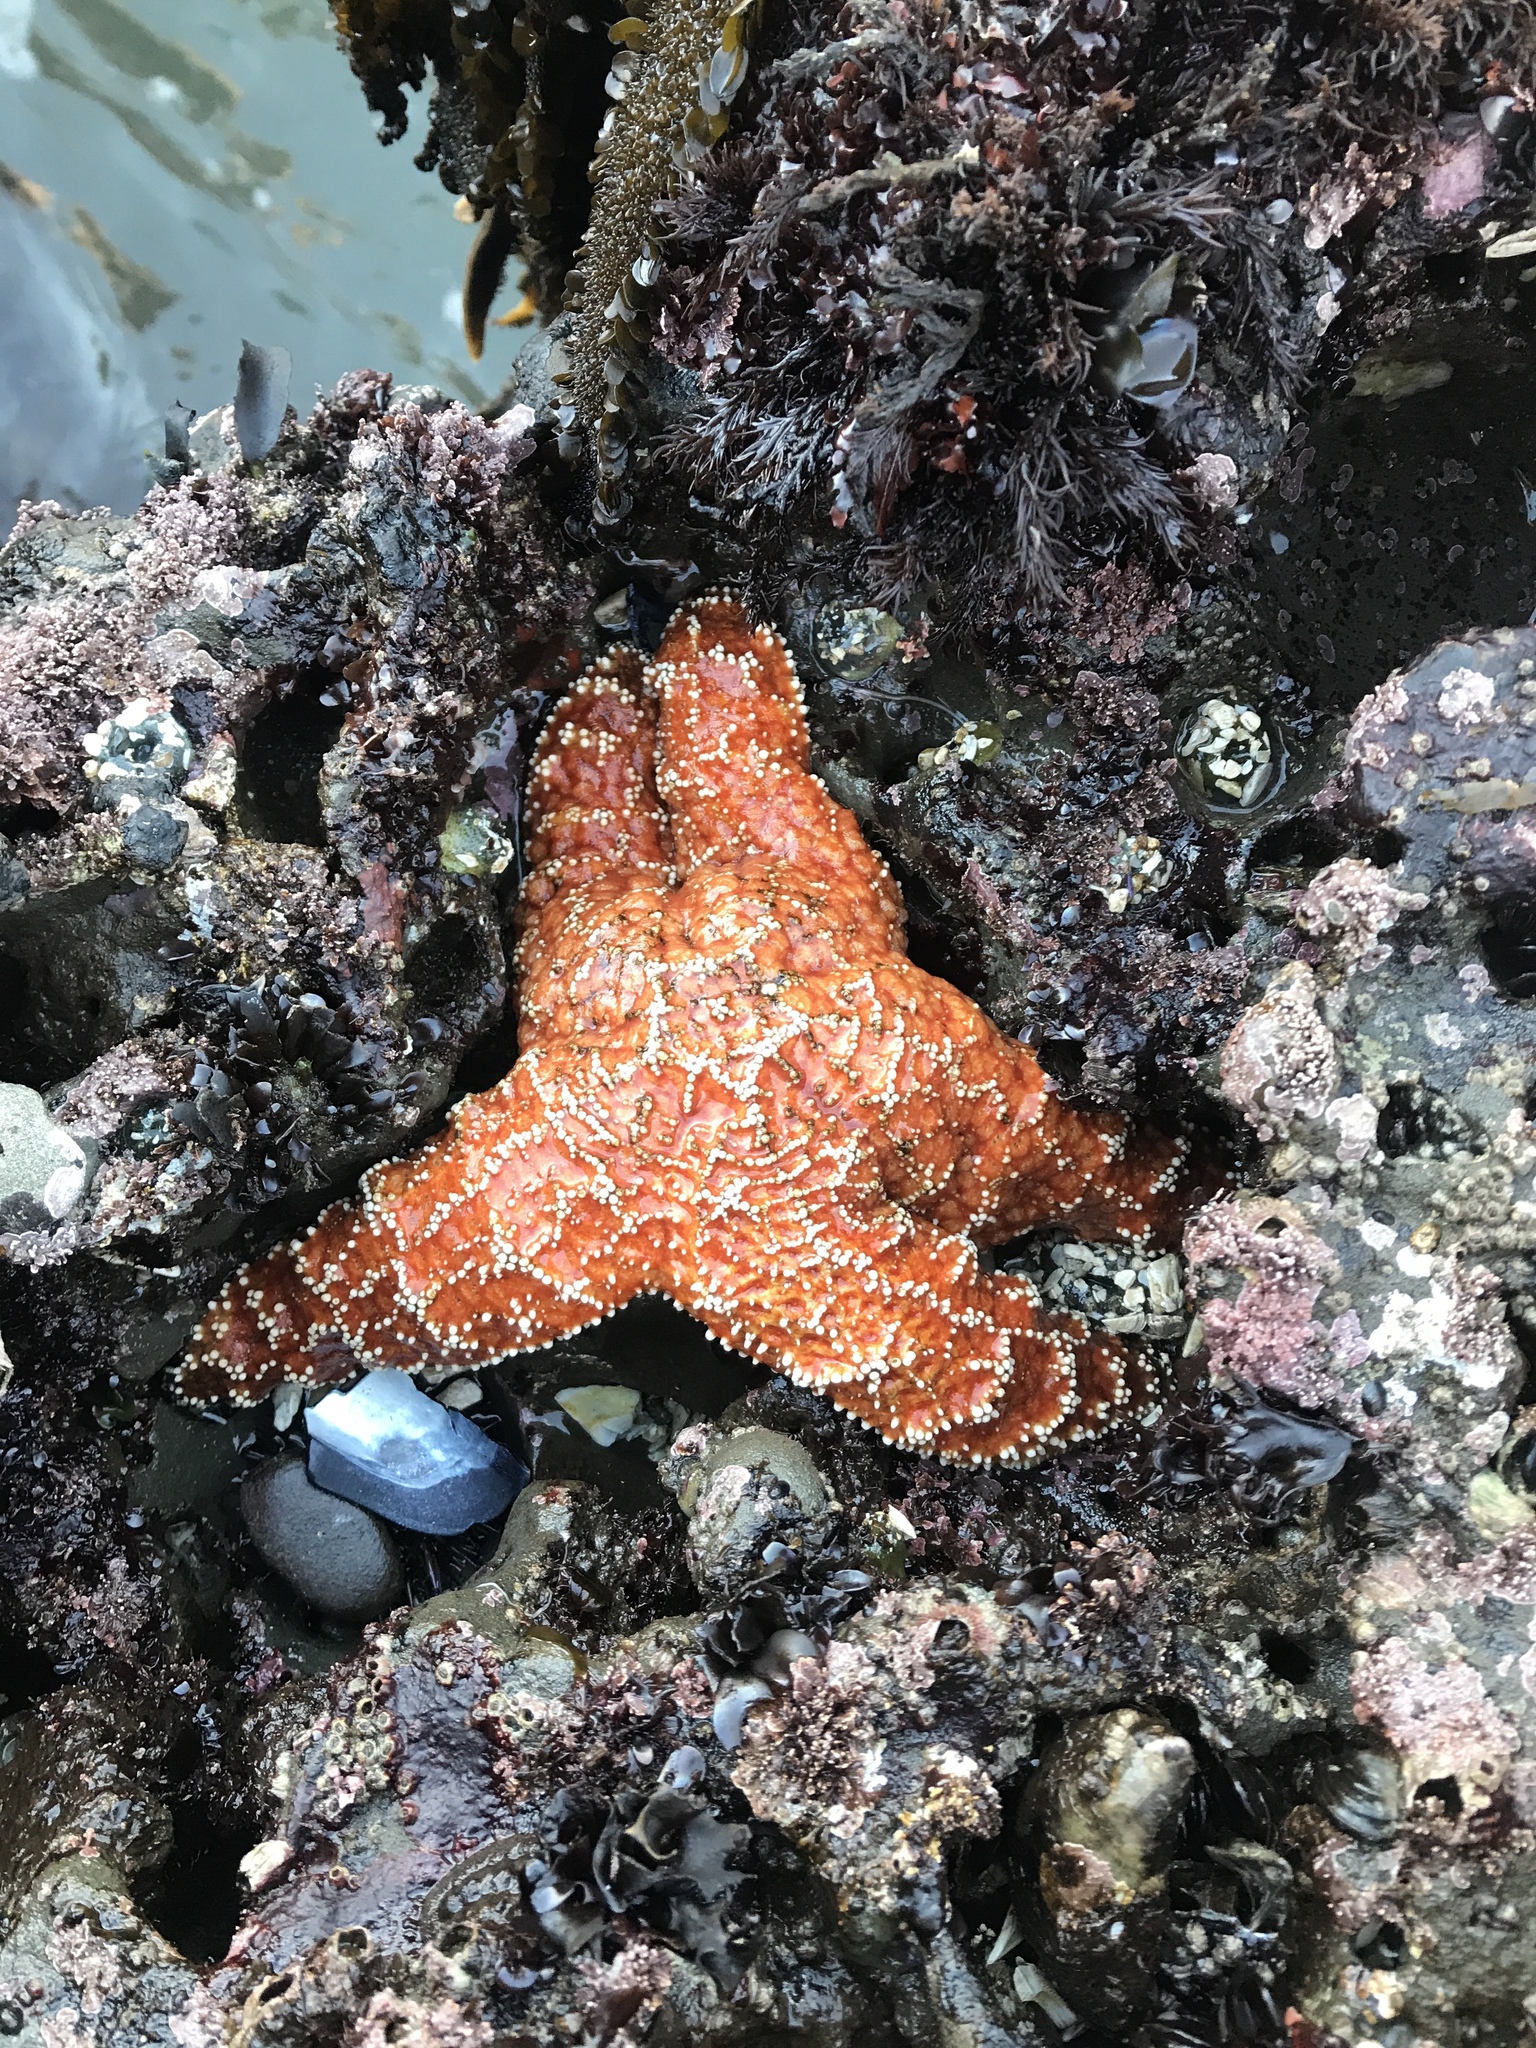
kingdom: Animalia
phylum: Echinodermata
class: Asteroidea
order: Forcipulatida
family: Asteriidae
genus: Pisaster
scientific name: Pisaster ochraceus
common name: Ochre stars
